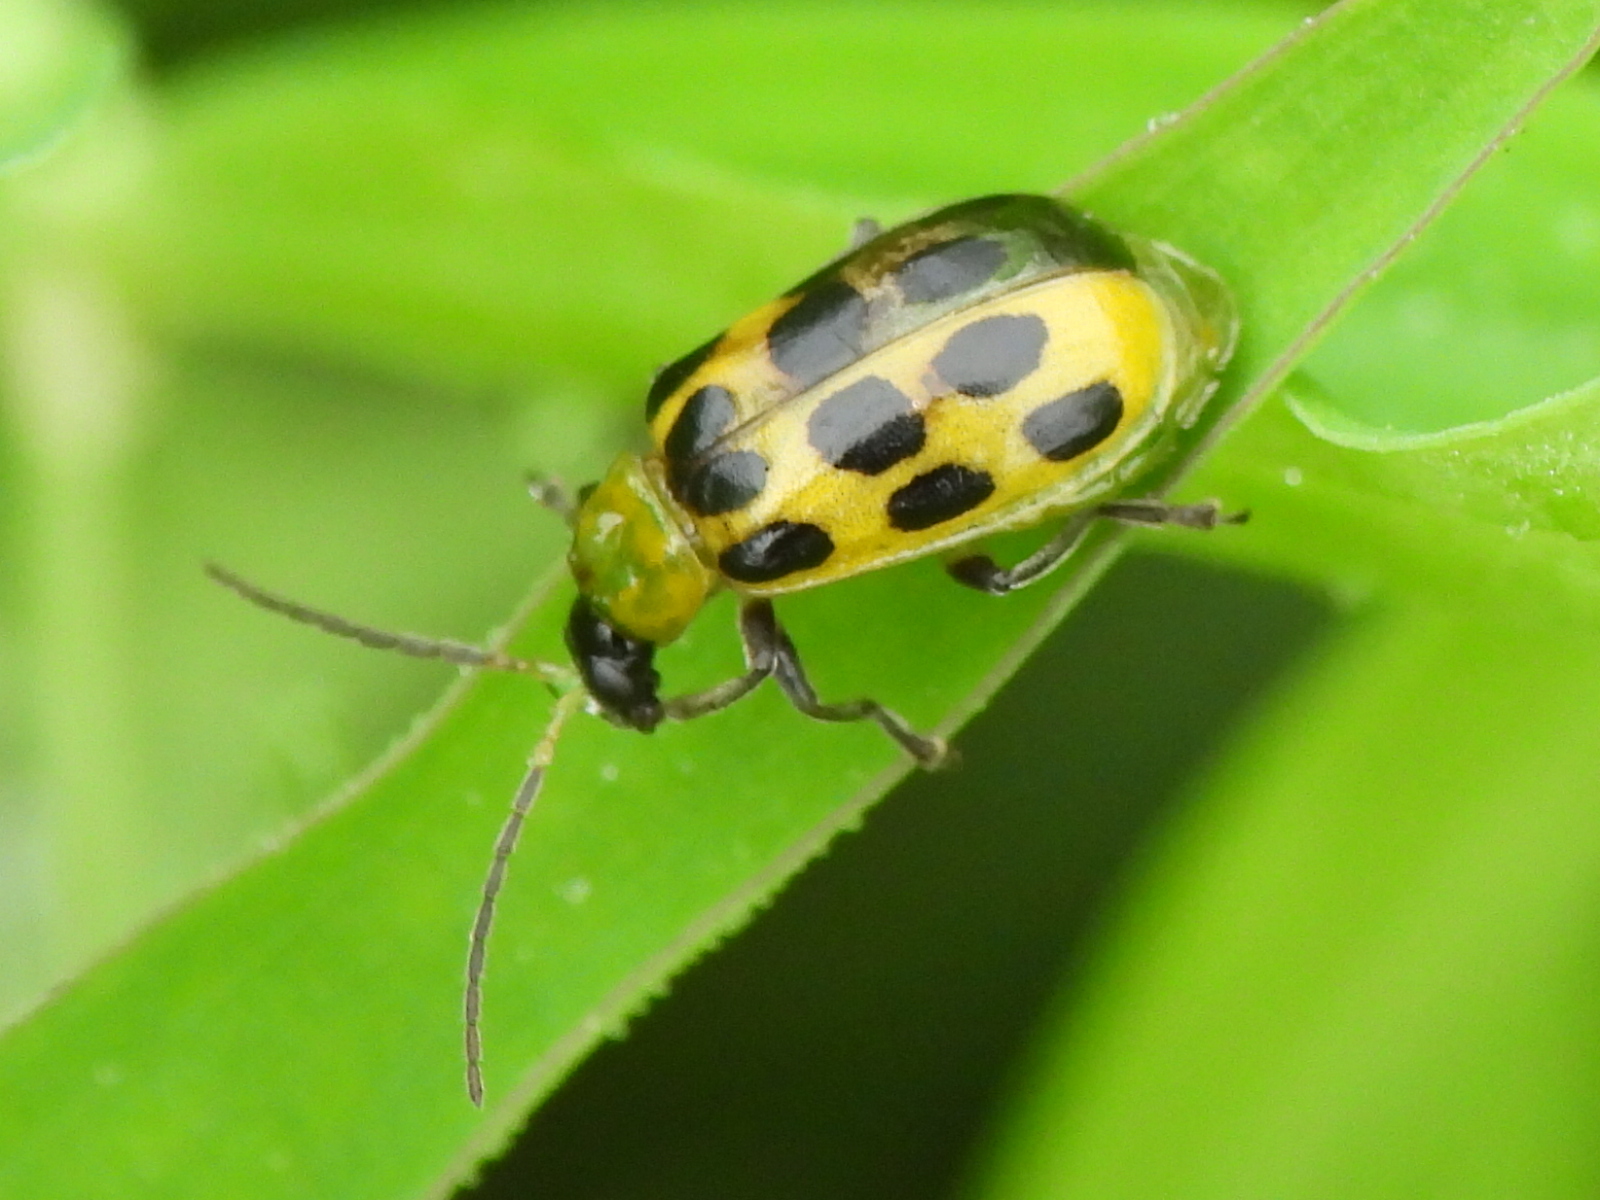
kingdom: Animalia
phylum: Arthropoda
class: Insecta
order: Coleoptera
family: Chrysomelidae
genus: Diabrotica
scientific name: Diabrotica undecimpunctata
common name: Spotted cucumber beetle
